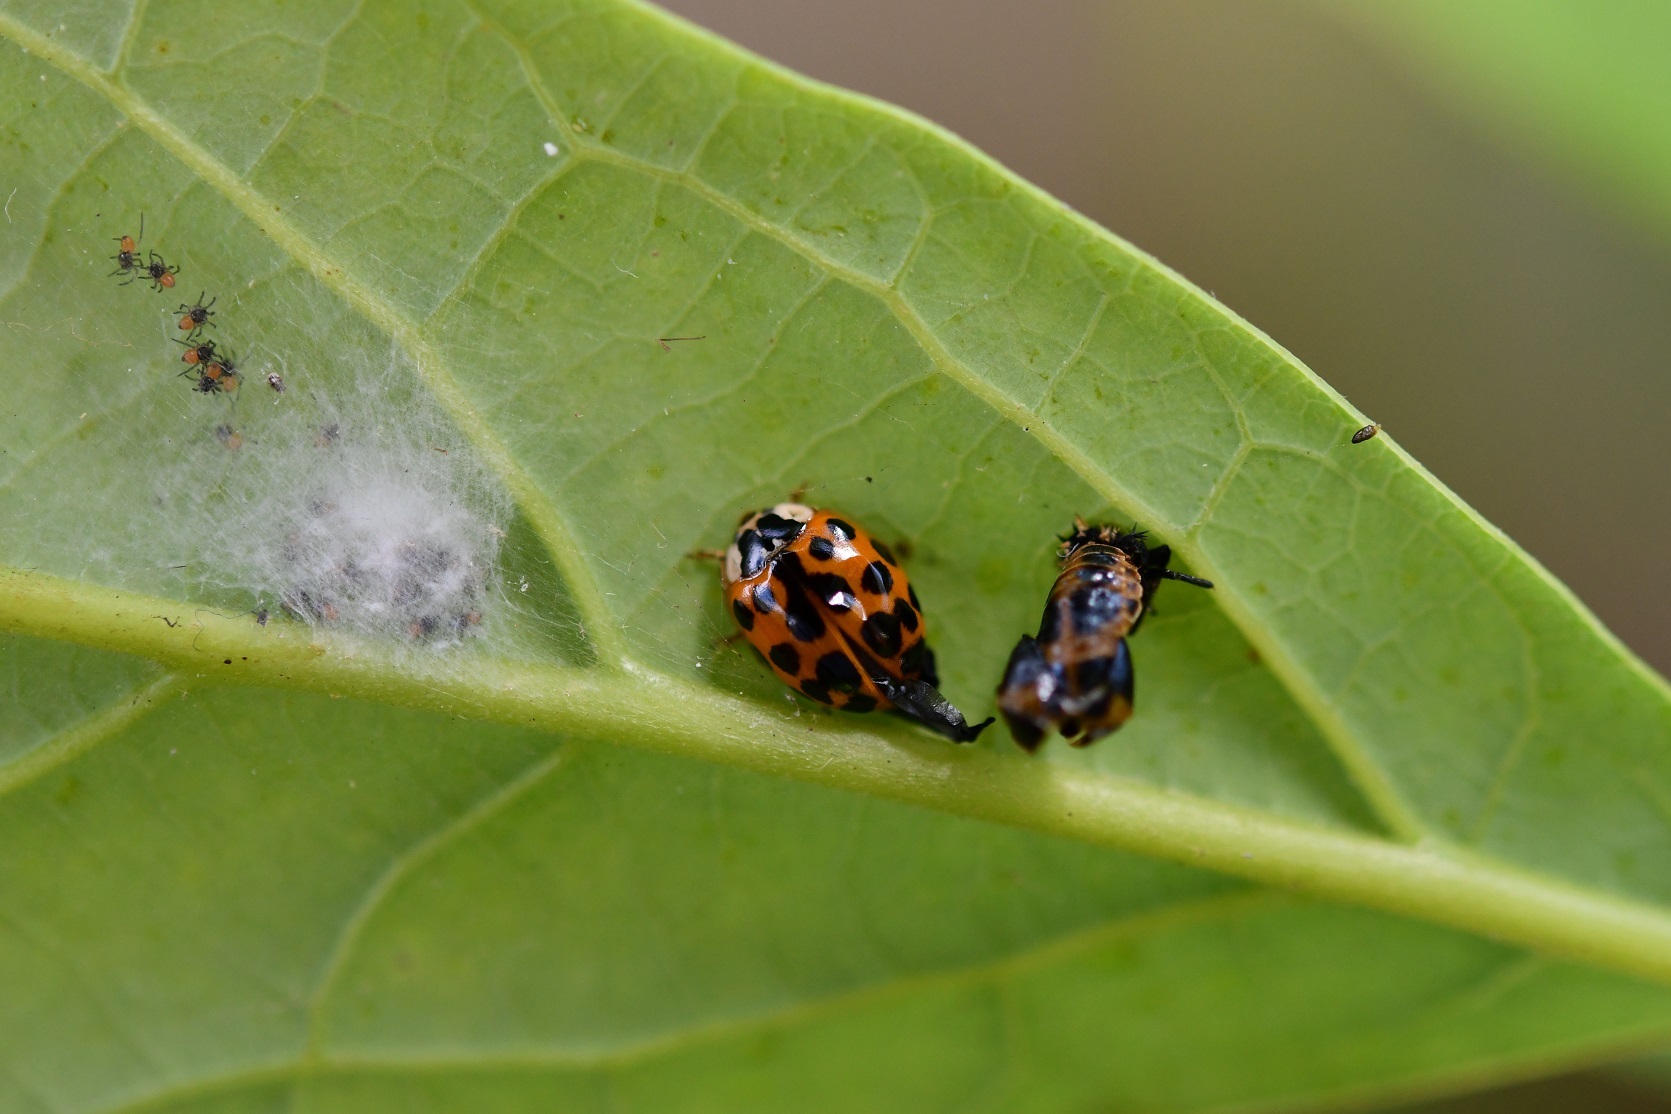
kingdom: Animalia
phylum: Arthropoda
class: Insecta
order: Coleoptera
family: Coccinellidae
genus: Harmonia
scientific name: Harmonia axyridis
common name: Harlequin ladybird
